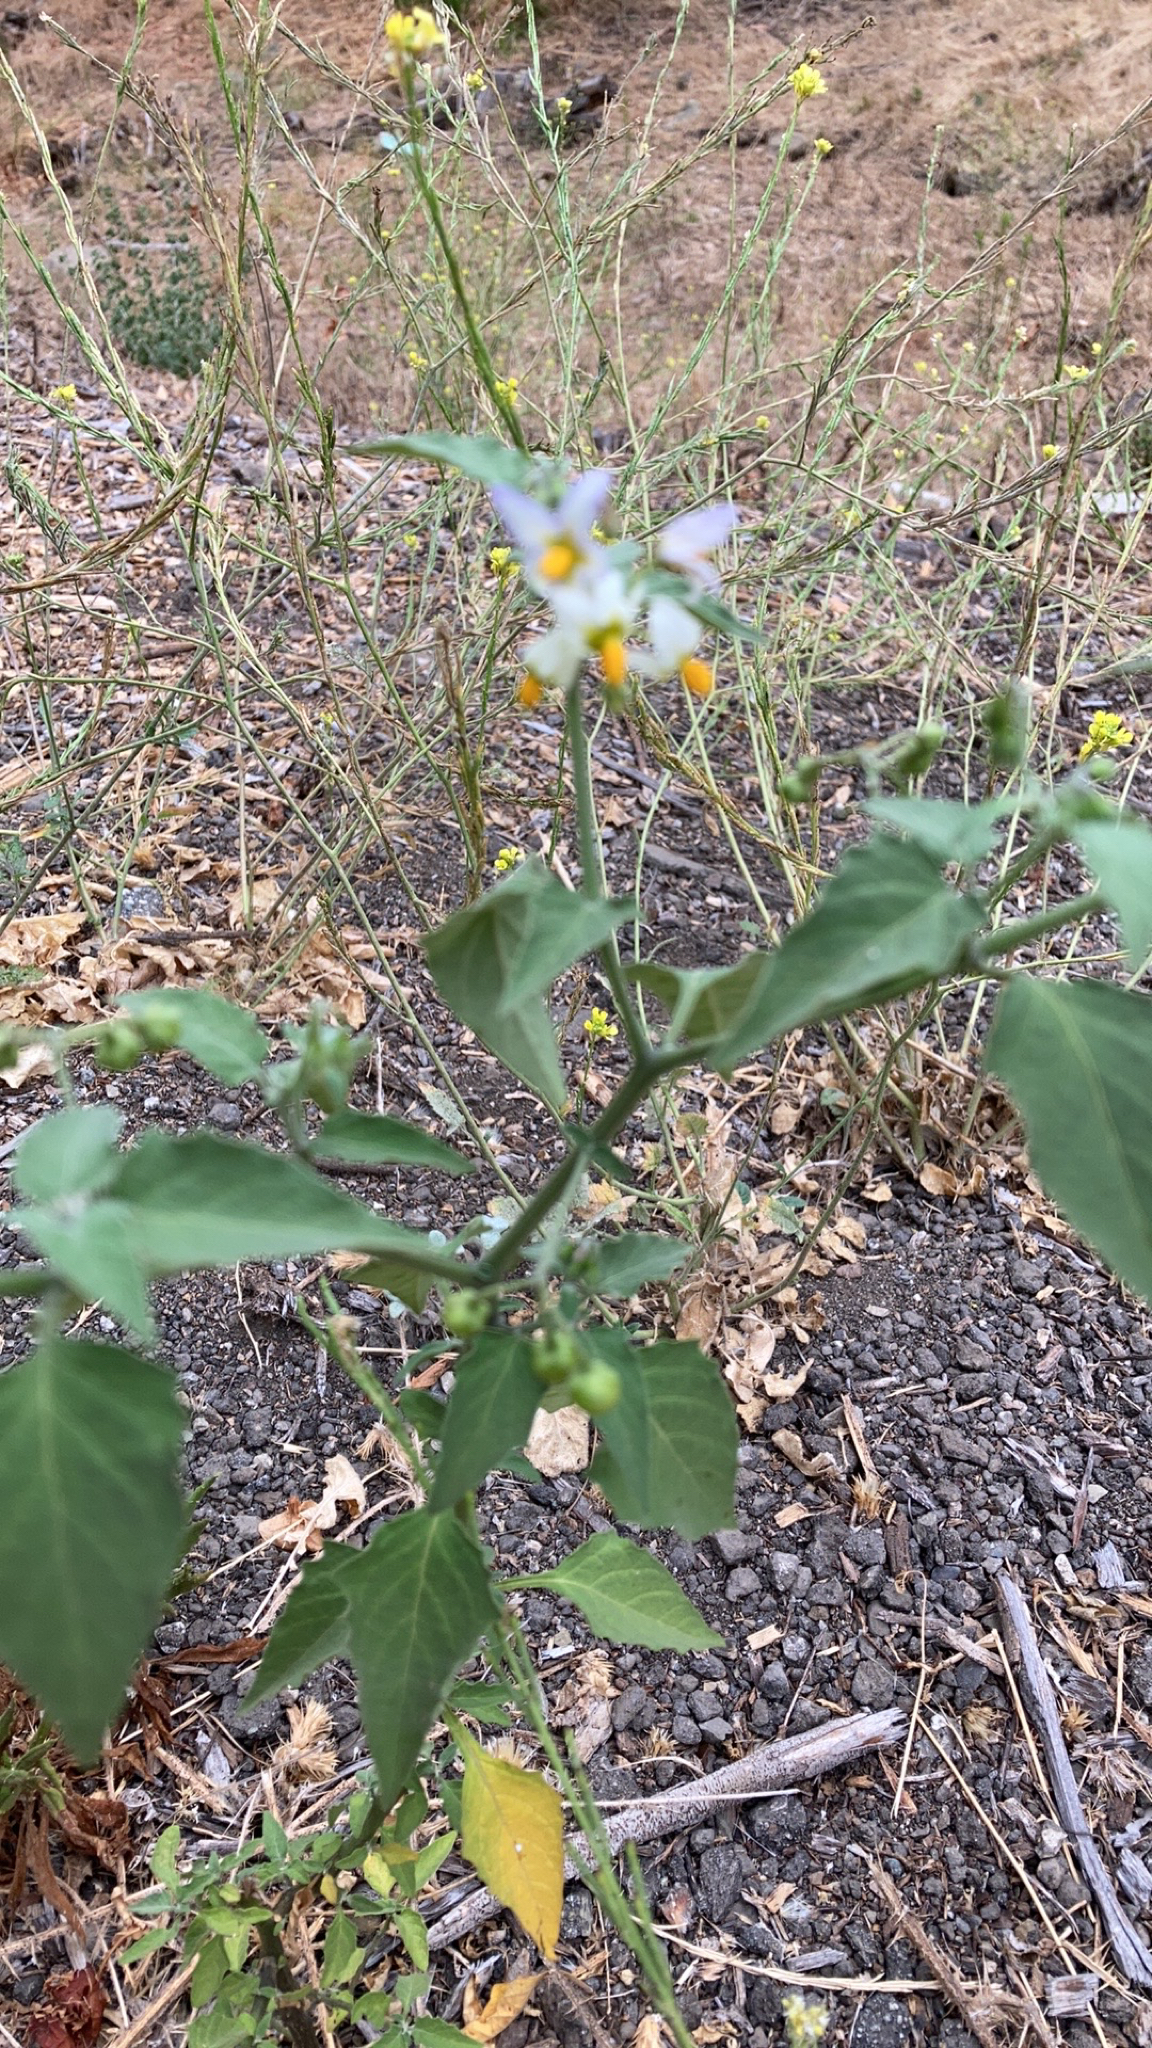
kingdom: Plantae
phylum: Tracheophyta
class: Magnoliopsida
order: Solanales
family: Solanaceae
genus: Solanum
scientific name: Solanum douglasii
